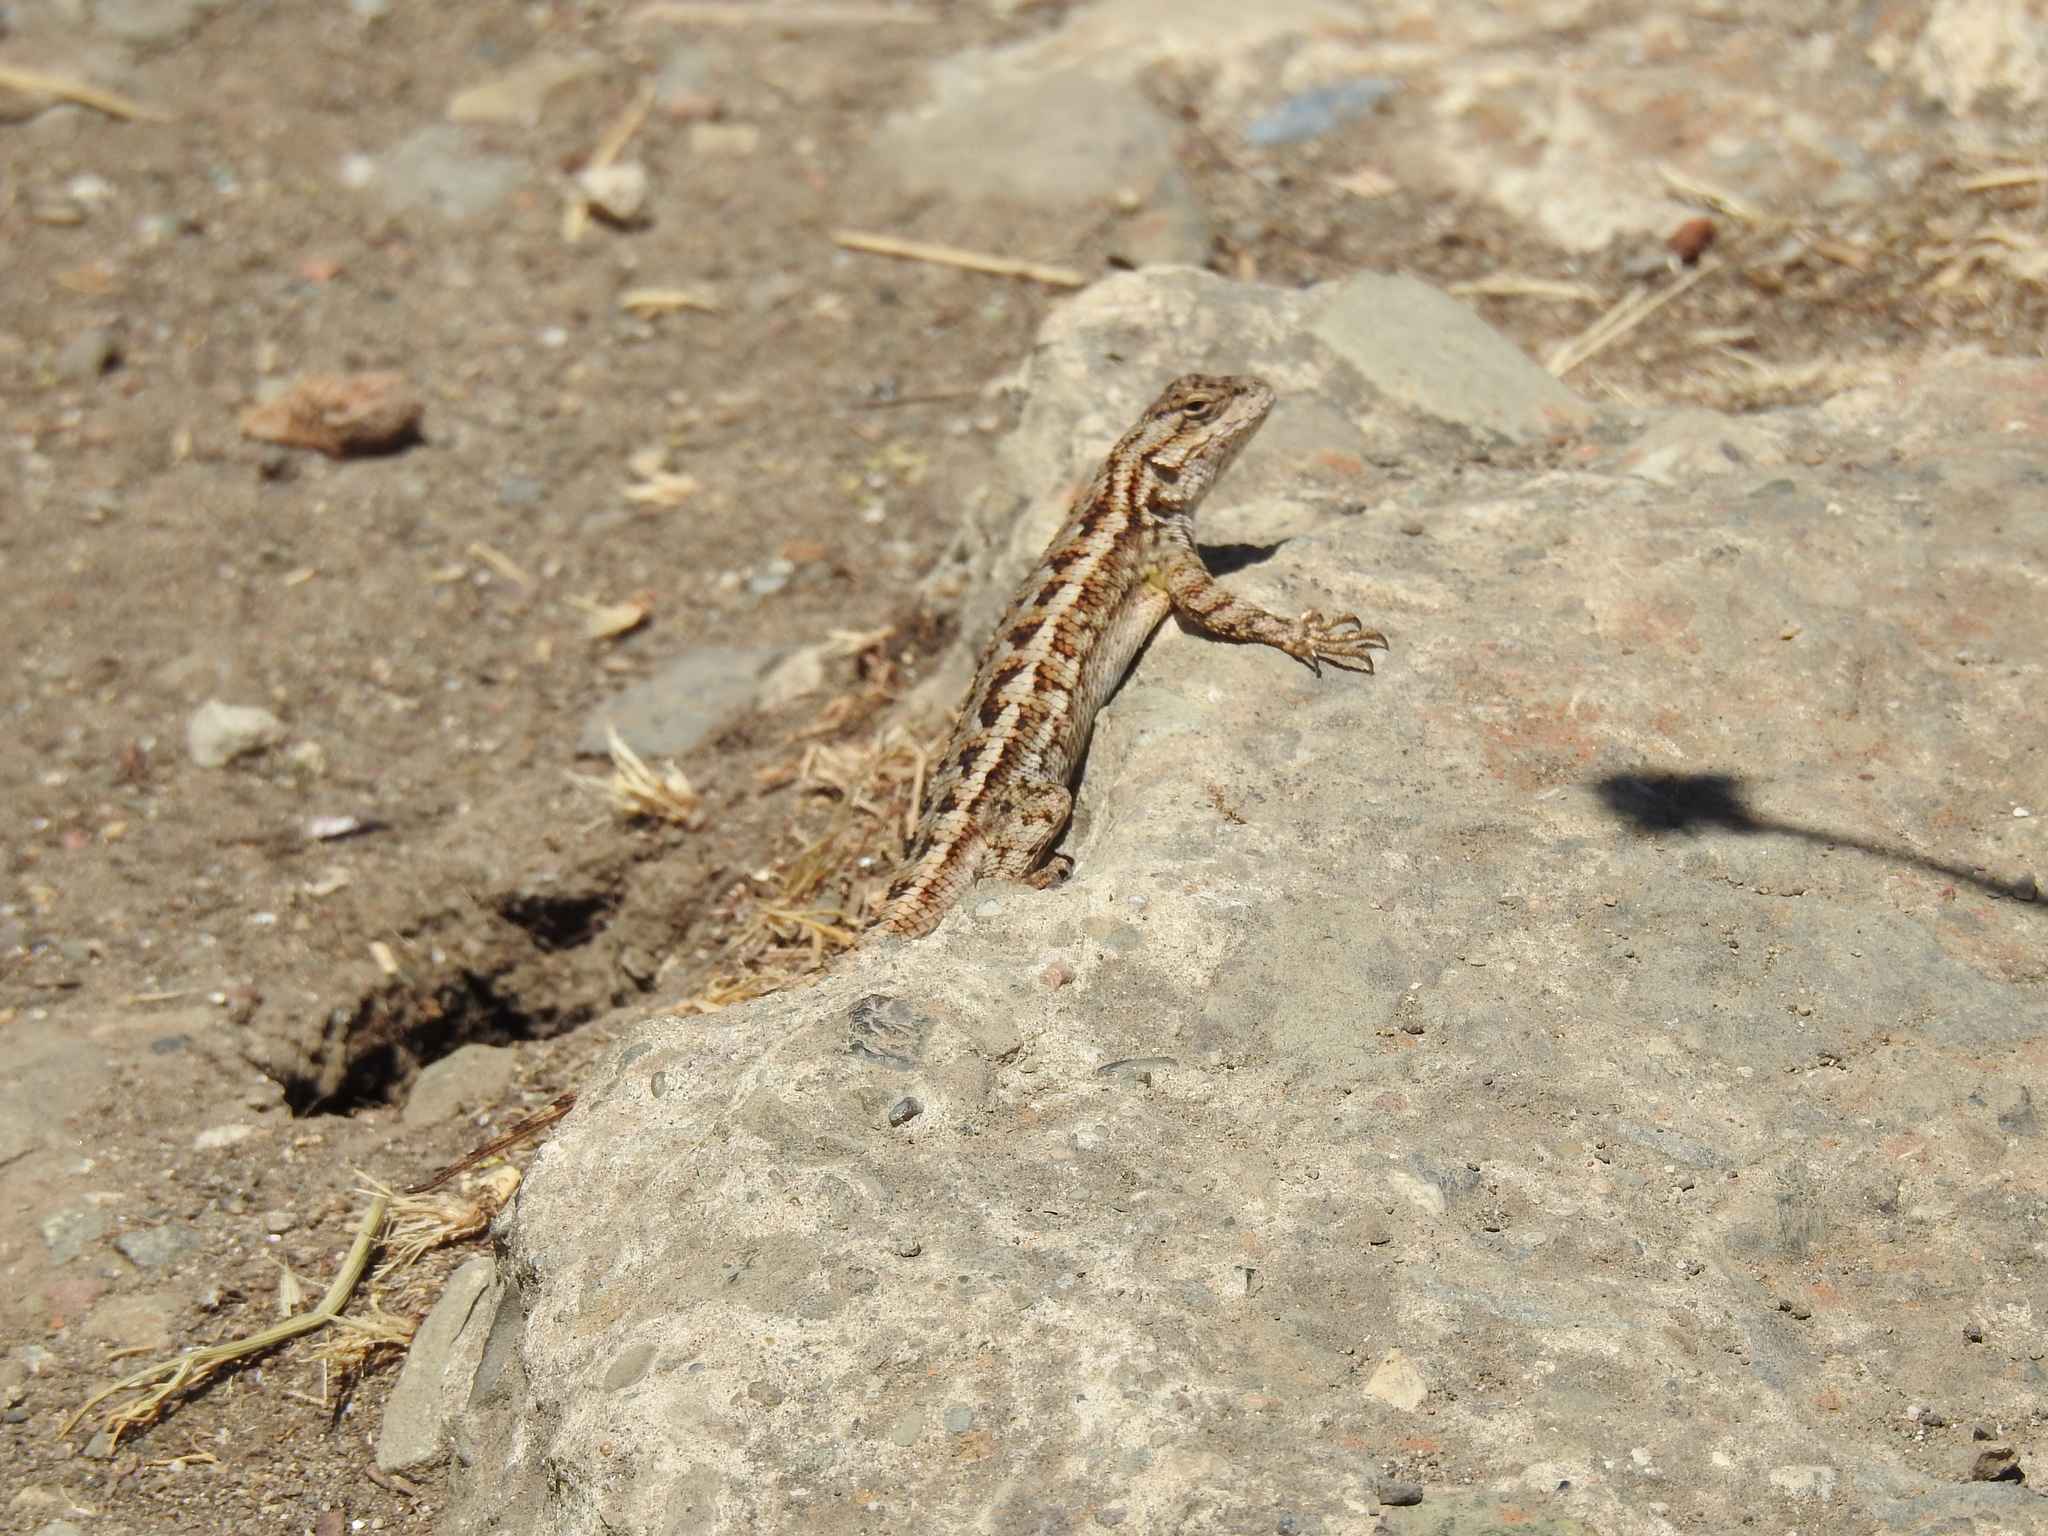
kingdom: Animalia
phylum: Chordata
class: Squamata
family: Phrynosomatidae
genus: Sceloporus
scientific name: Sceloporus occidentalis
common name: Western fence lizard
